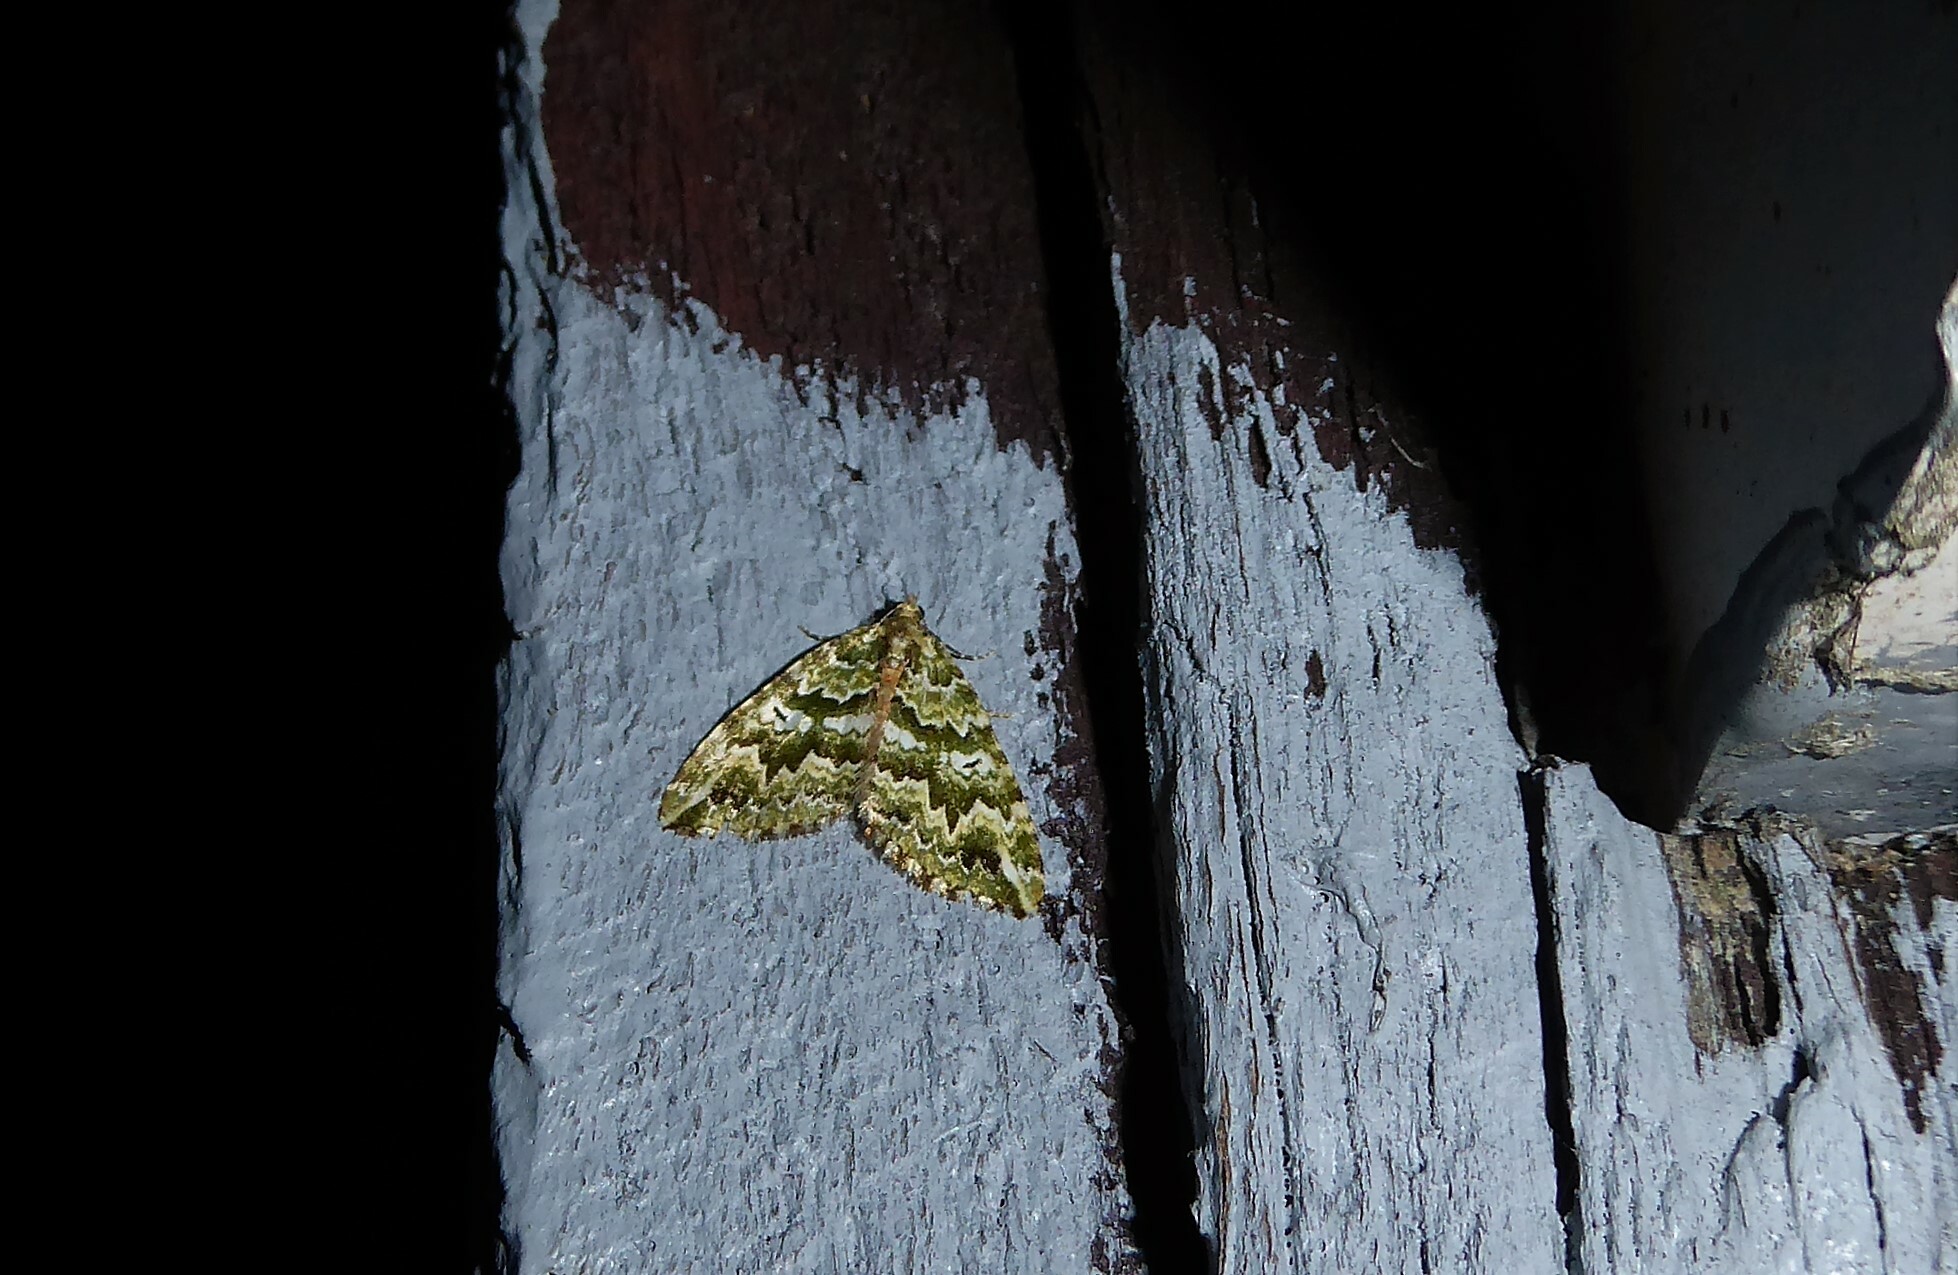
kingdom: Animalia
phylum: Arthropoda
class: Insecta
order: Lepidoptera
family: Geometridae
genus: Asaphodes
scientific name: Asaphodes beata
